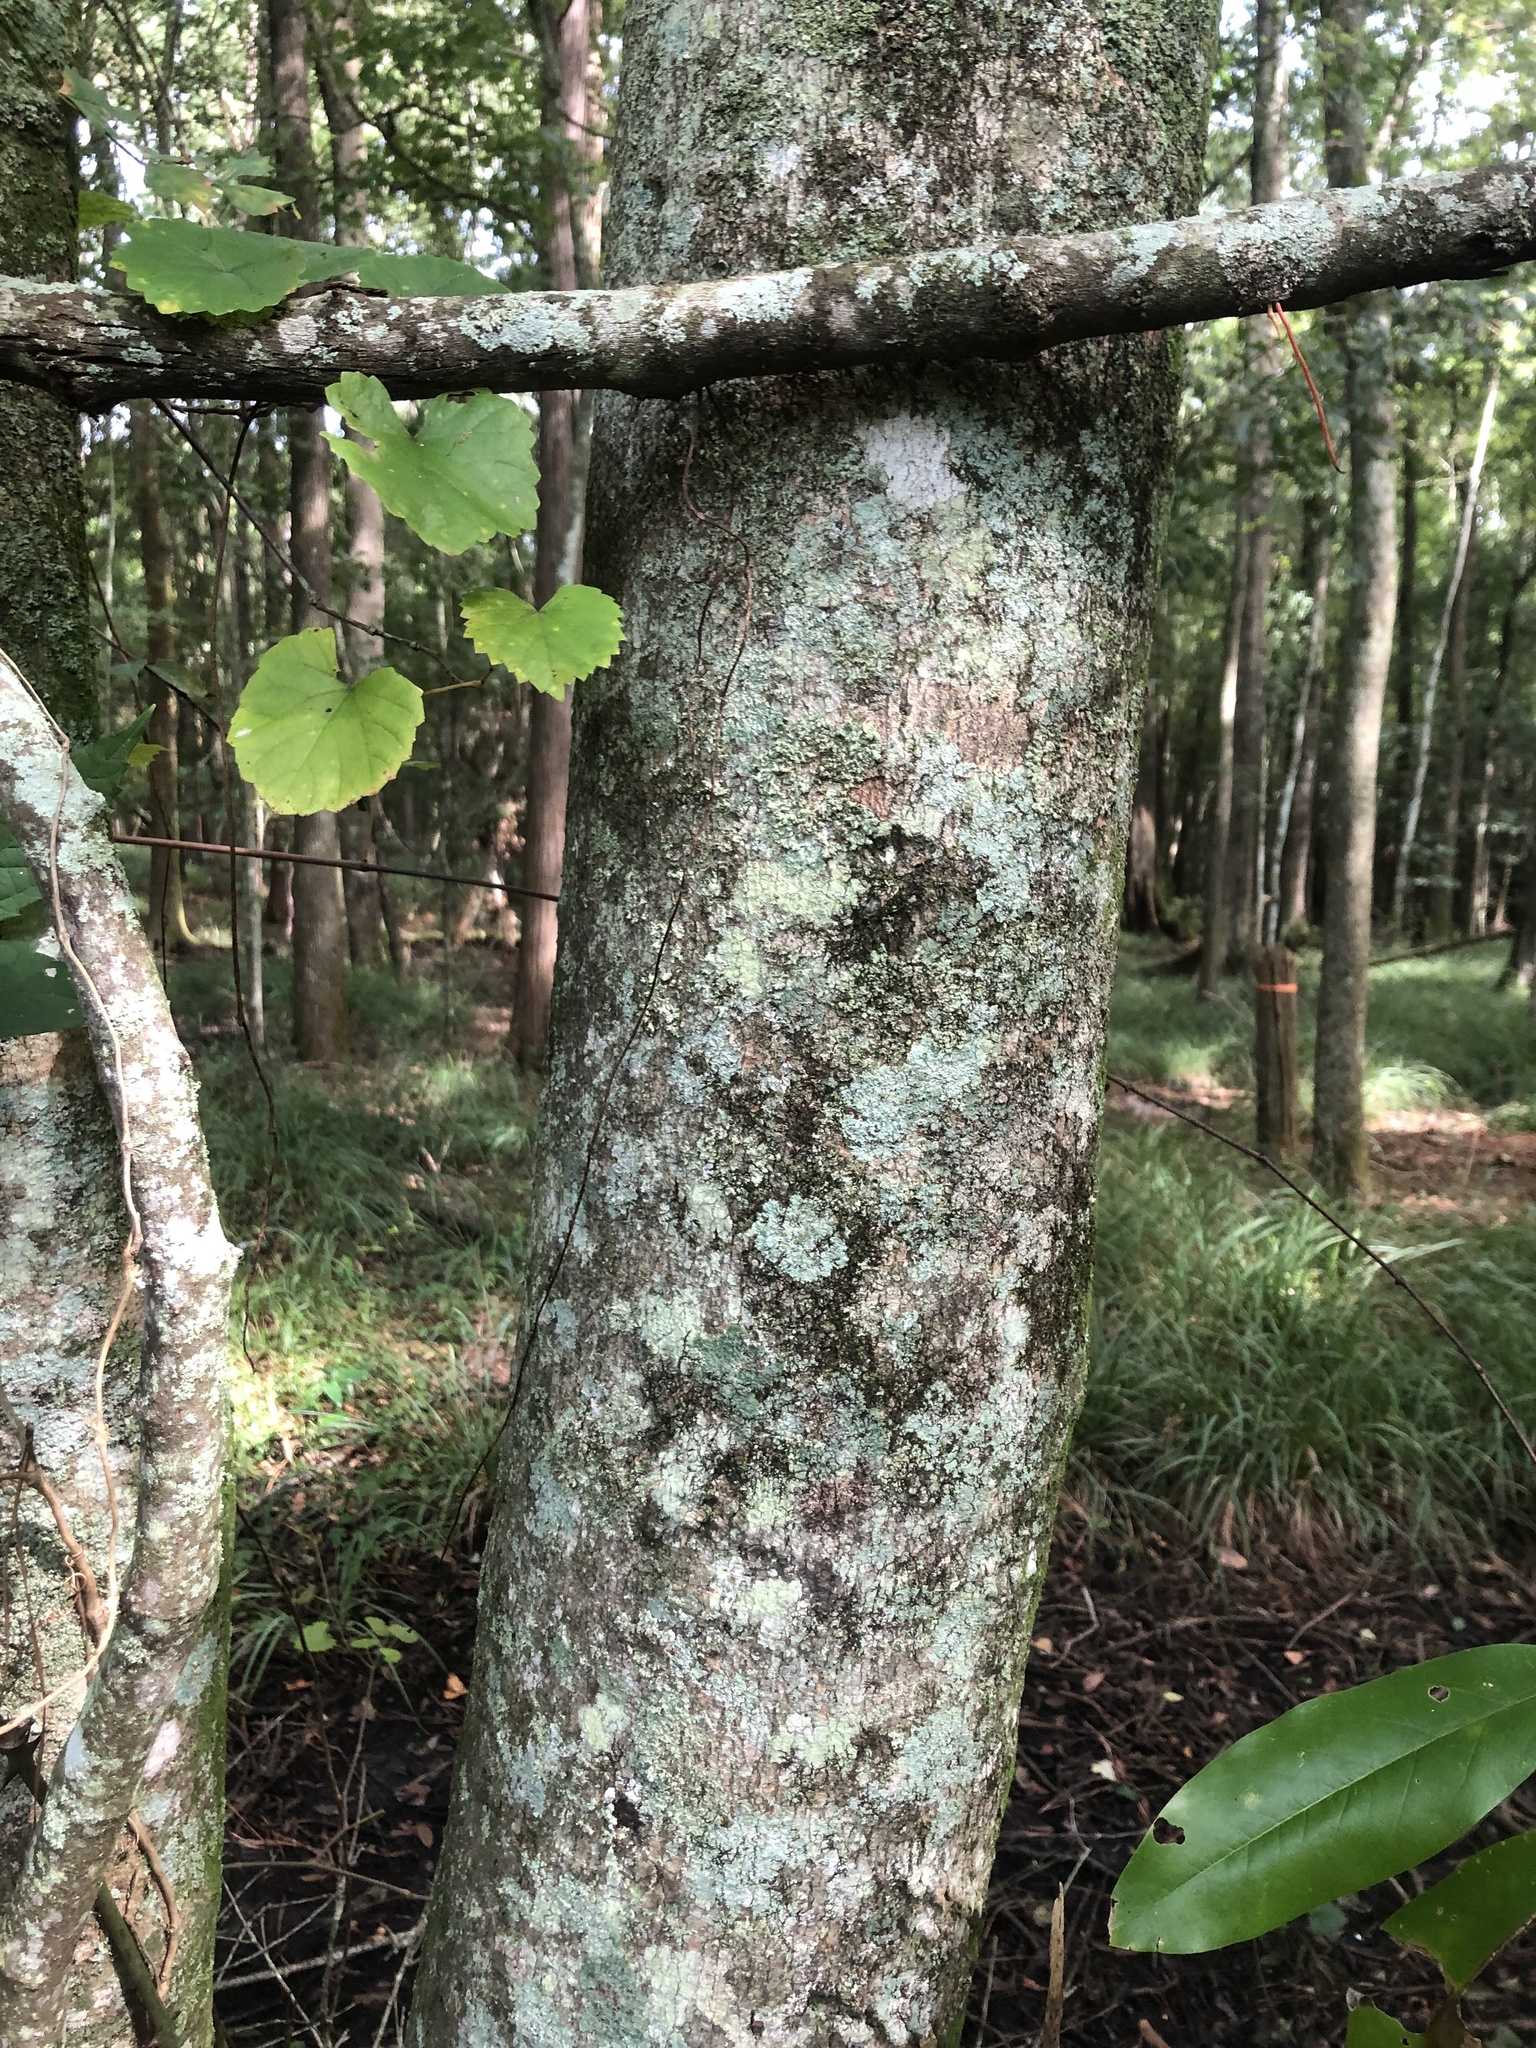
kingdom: Plantae
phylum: Tracheophyta
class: Magnoliopsida
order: Magnoliales
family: Magnoliaceae
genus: Magnolia
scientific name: Magnolia virginiana
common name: Swamp bay
